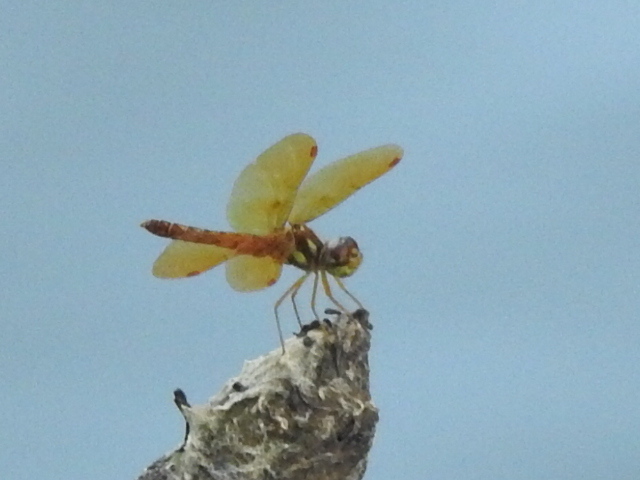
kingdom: Animalia
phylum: Arthropoda
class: Insecta
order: Odonata
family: Libellulidae
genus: Perithemis
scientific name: Perithemis tenera
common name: Eastern amberwing
